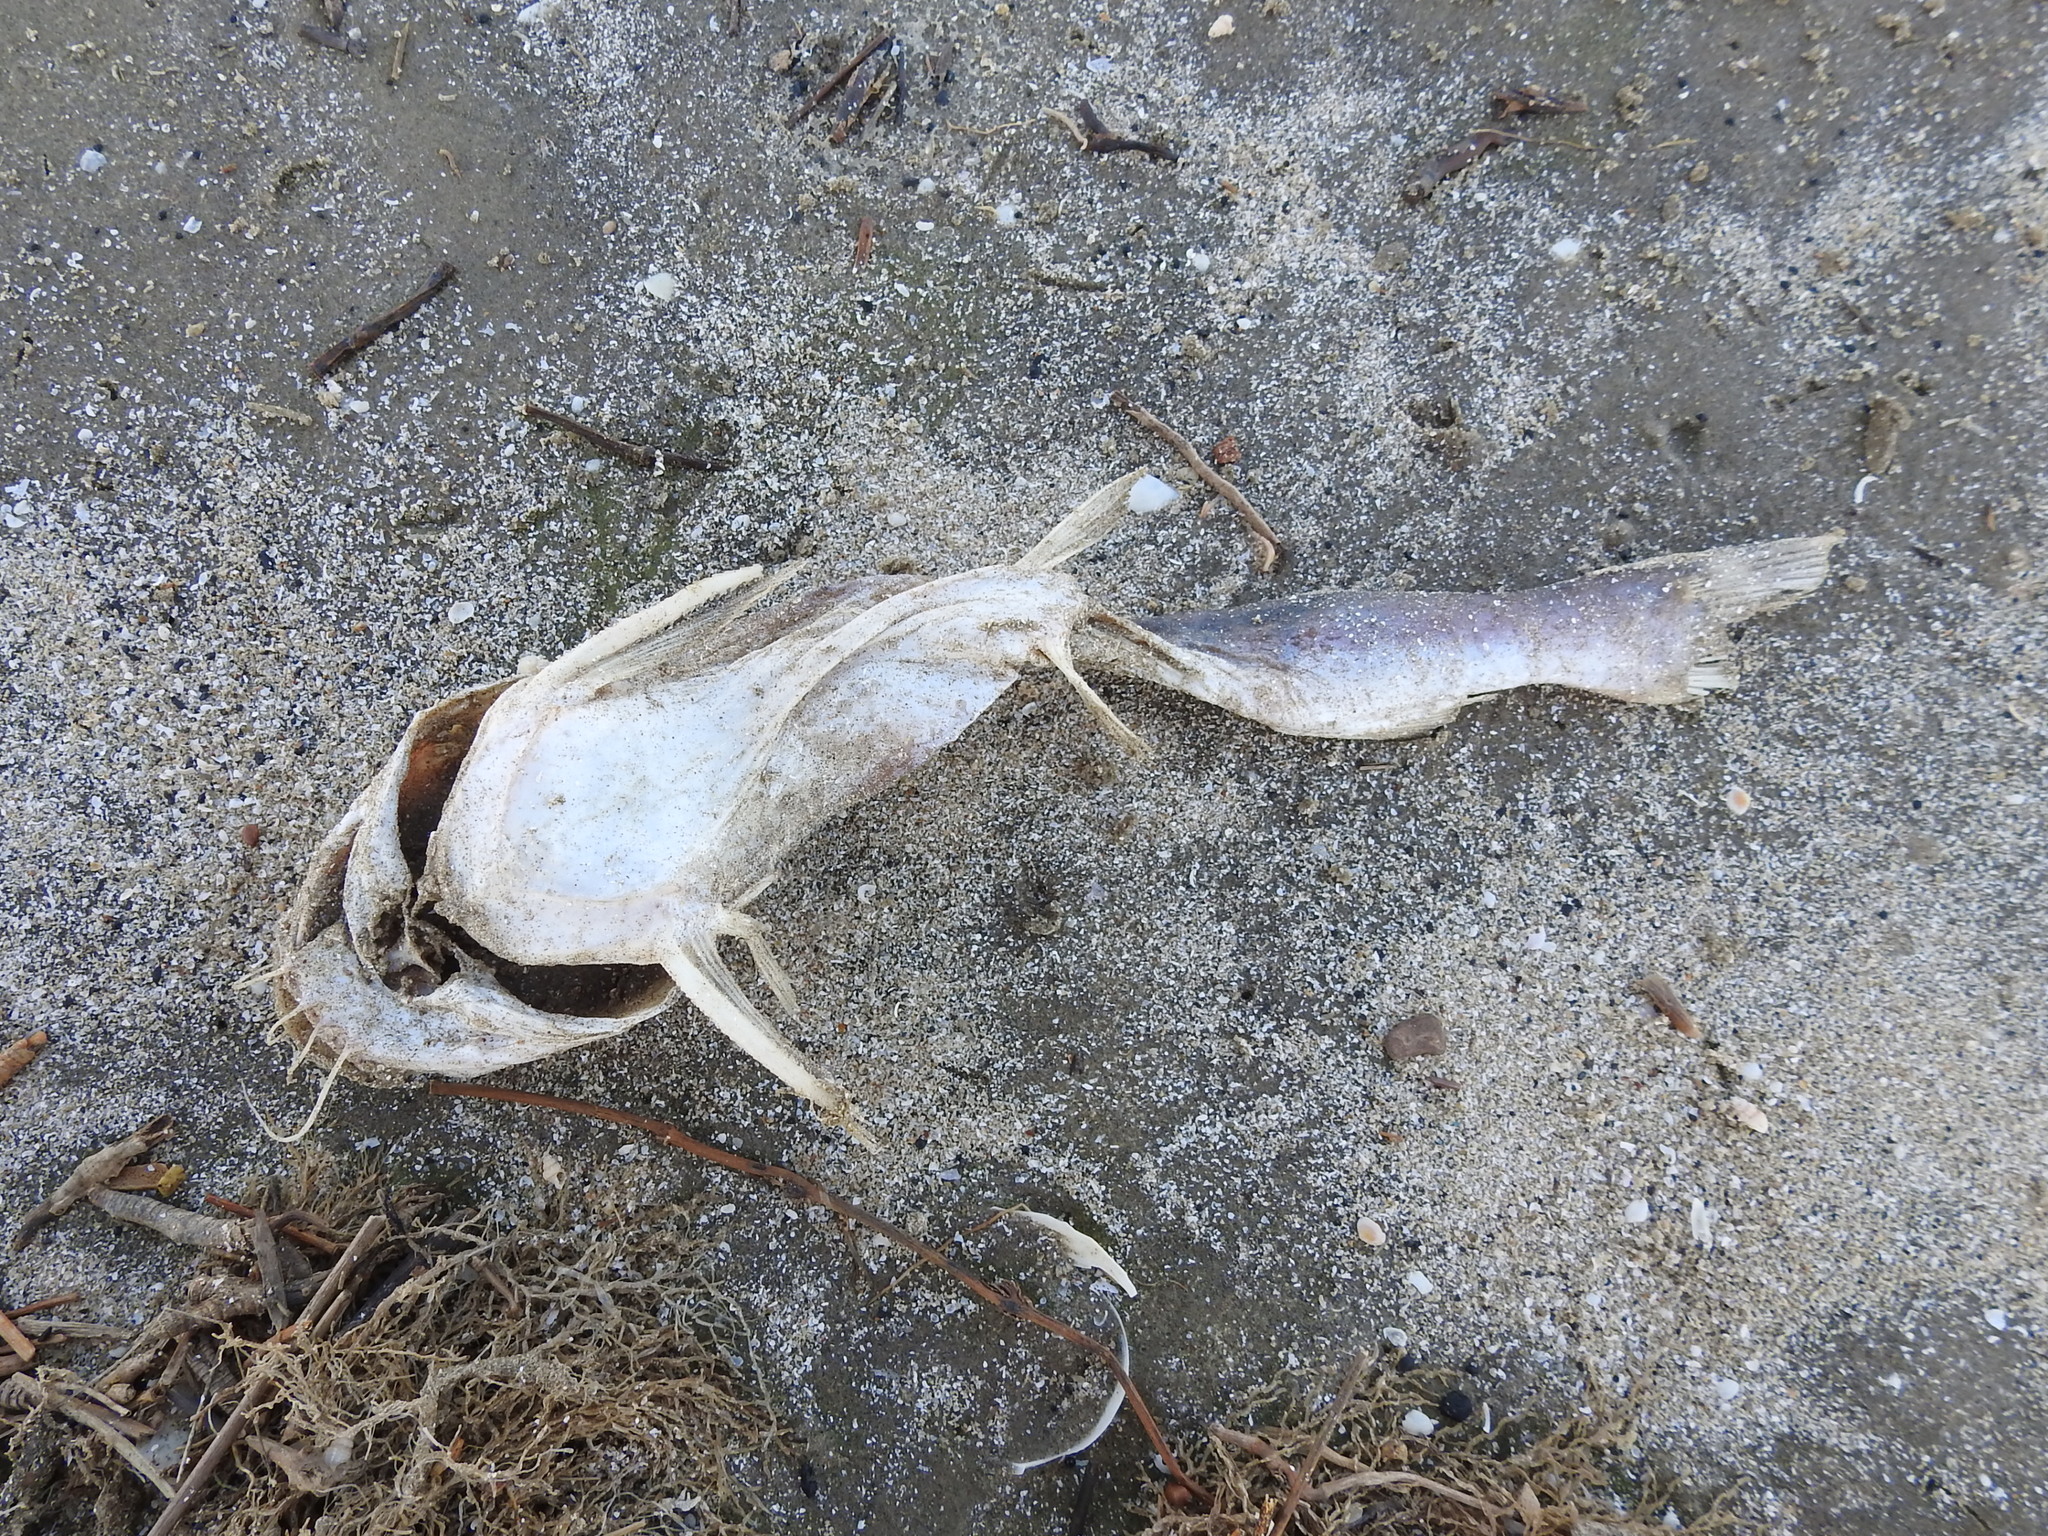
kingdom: Animalia
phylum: Chordata
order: Siluriformes
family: Ariidae
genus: Ariopsis
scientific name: Ariopsis felis
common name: Hardhead catfish
